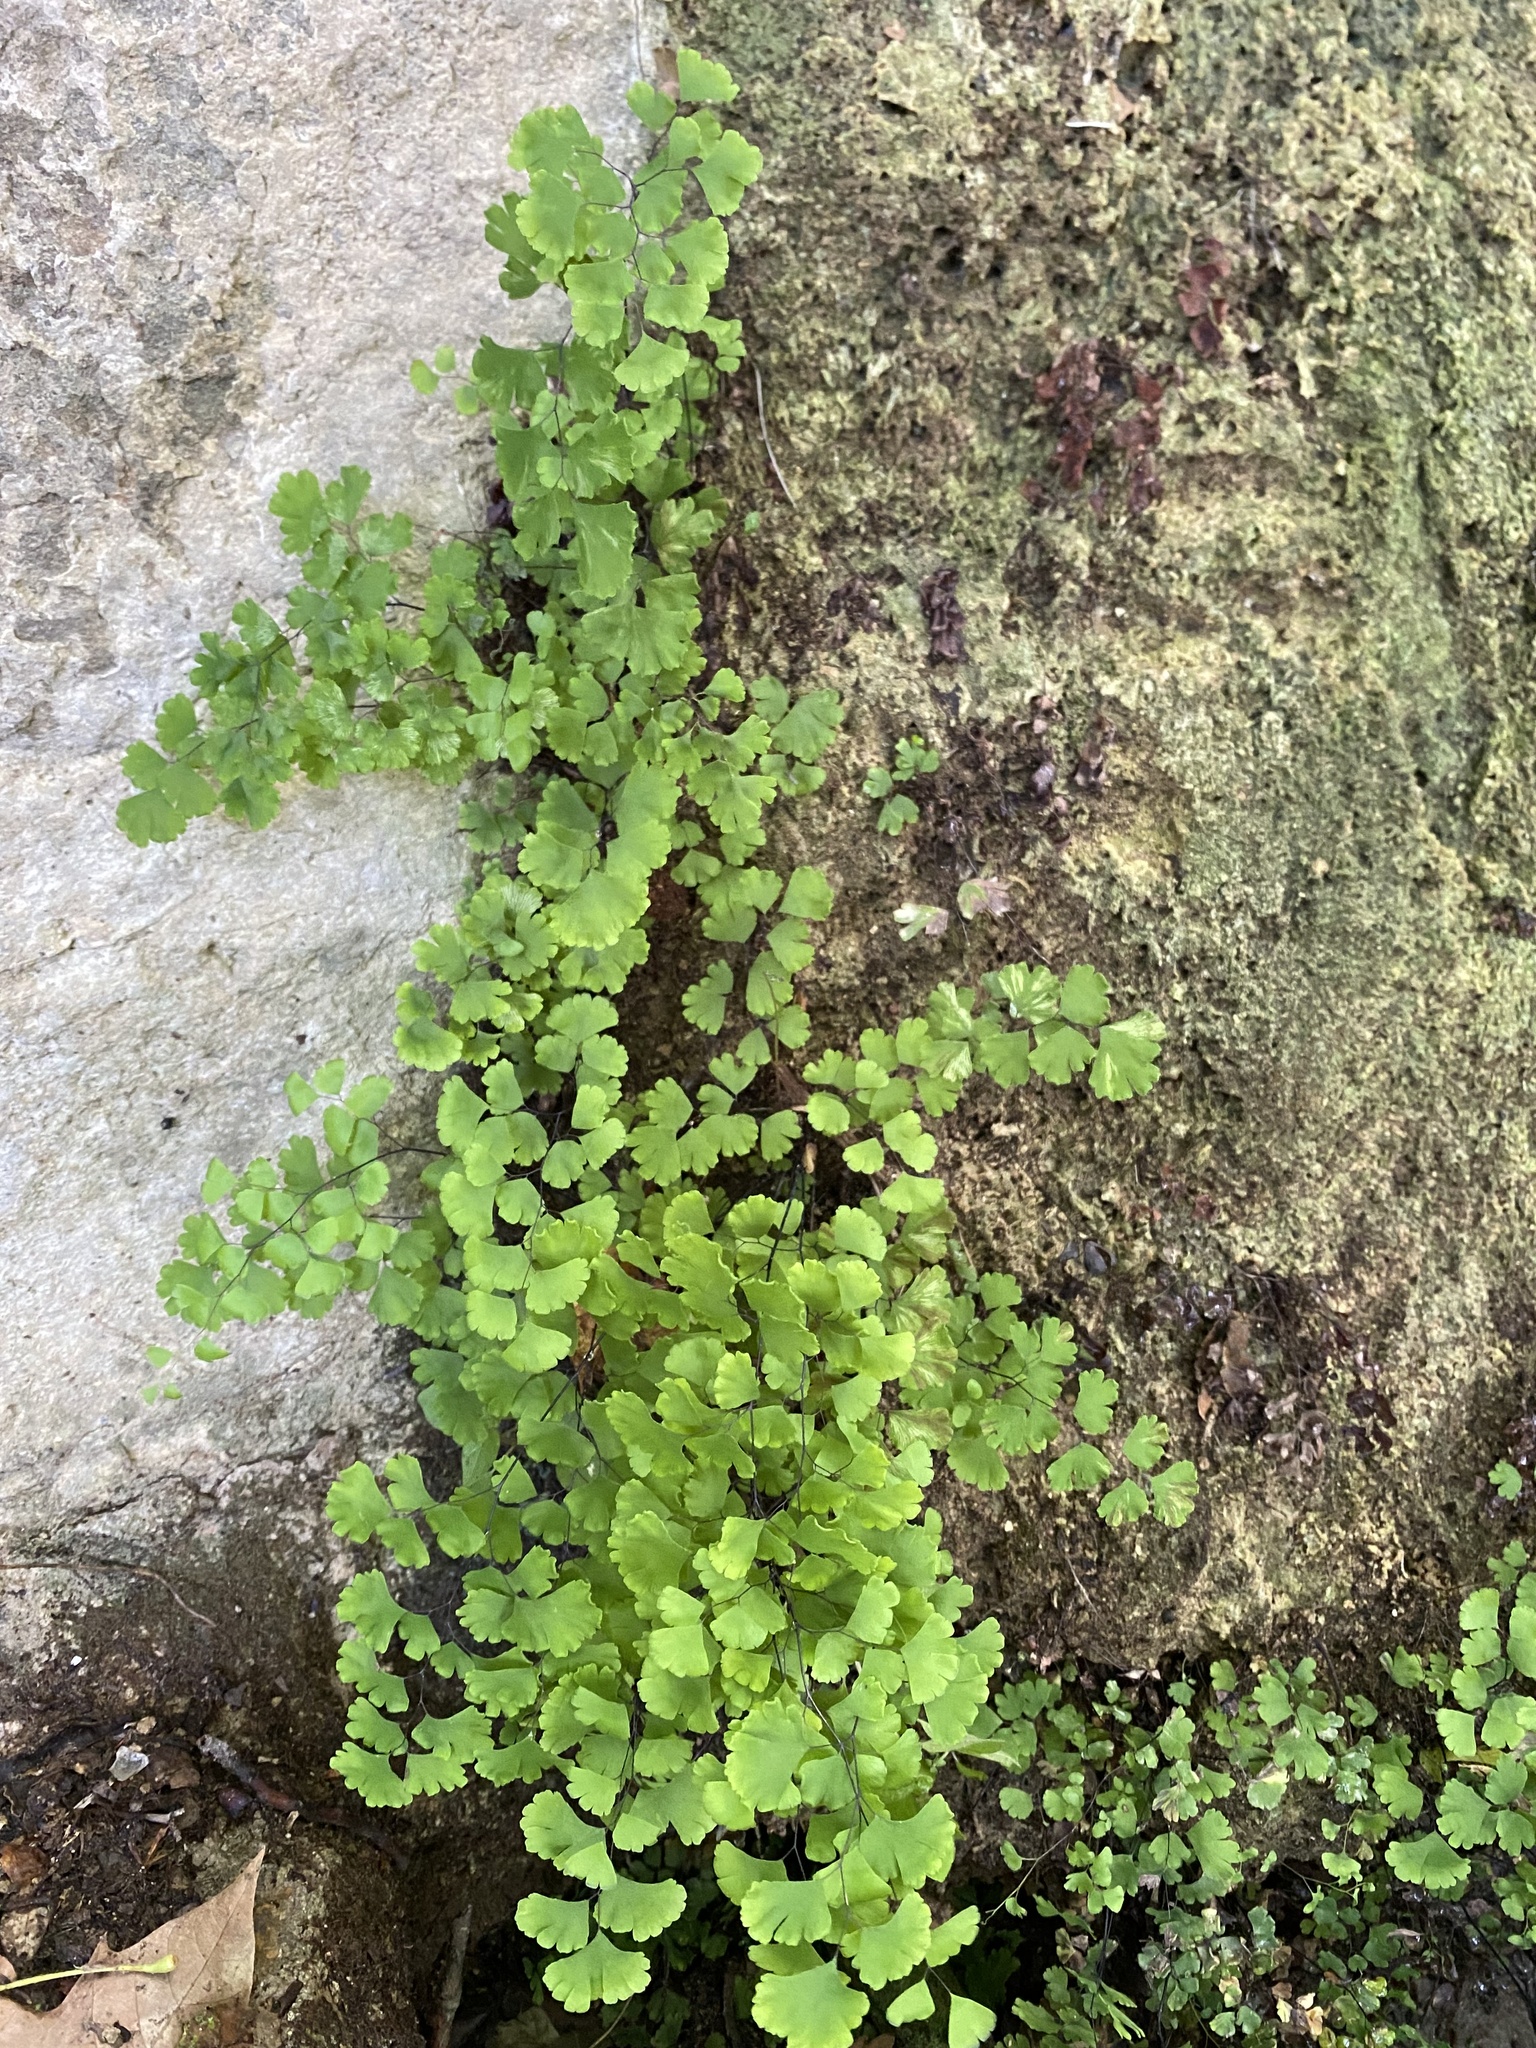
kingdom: Plantae
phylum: Tracheophyta
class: Polypodiopsida
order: Polypodiales
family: Pteridaceae
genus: Adiantum
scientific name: Adiantum capillus-veneris
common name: Maidenhair fern
